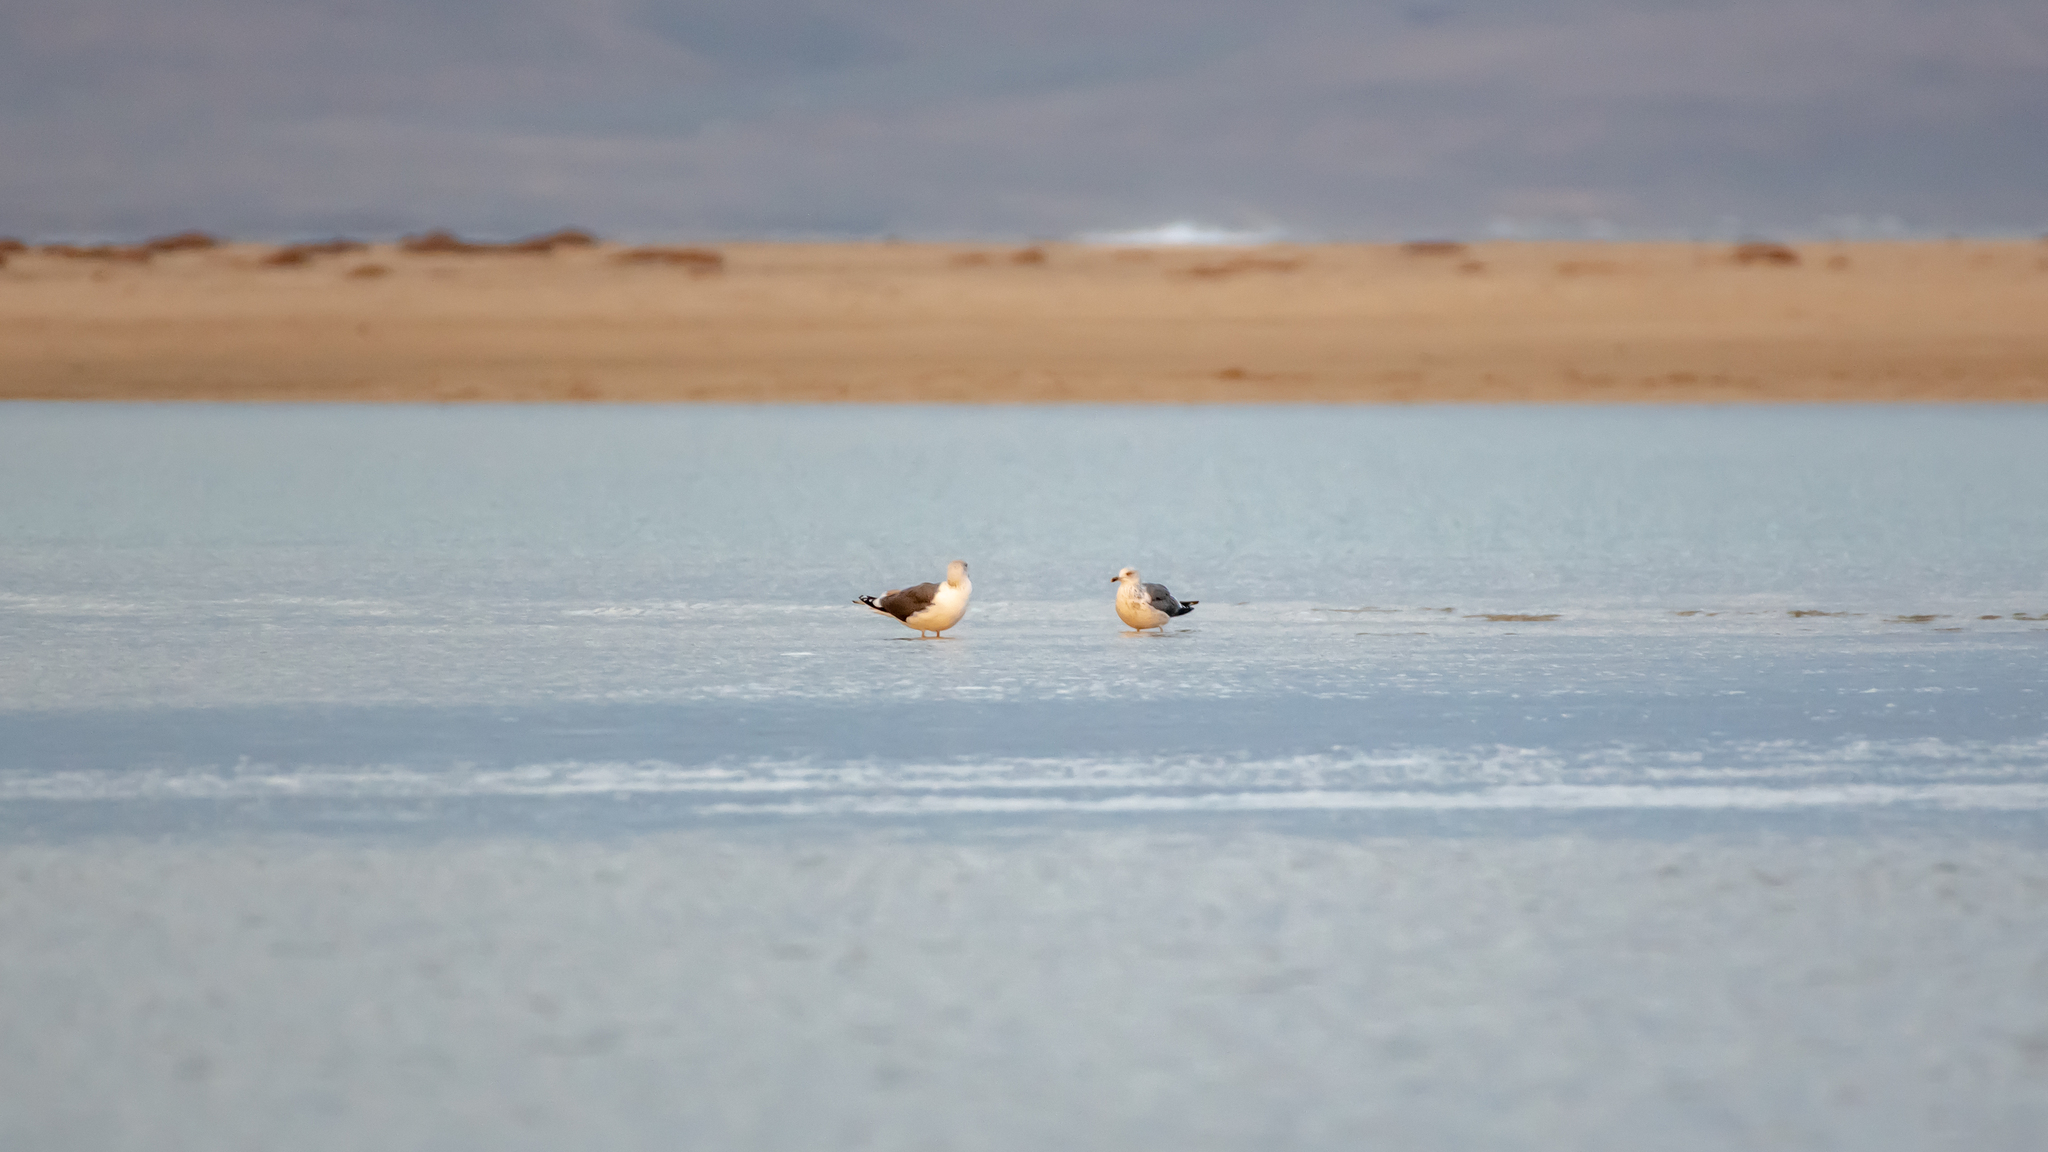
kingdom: Animalia
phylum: Chordata
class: Aves
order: Charadriiformes
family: Laridae
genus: Larus
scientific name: Larus fuscus
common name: Lesser black-backed gull
